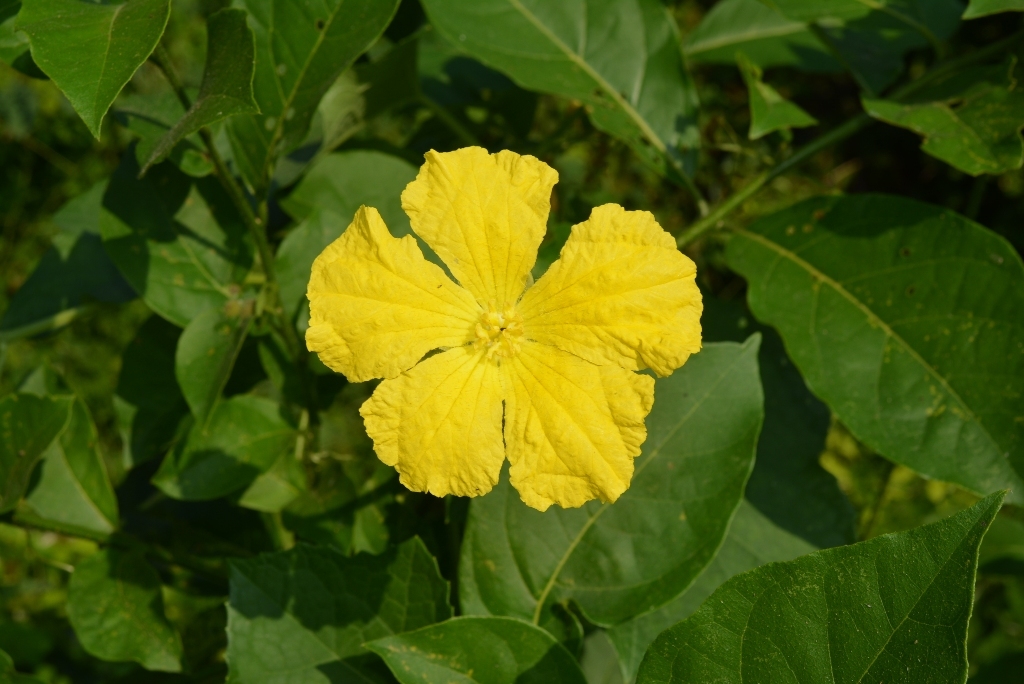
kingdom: Plantae
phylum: Tracheophyta
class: Magnoliopsida
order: Cucurbitales
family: Cucurbitaceae
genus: Luffa
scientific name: Luffa aegyptiaca
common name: Sponge gourd
